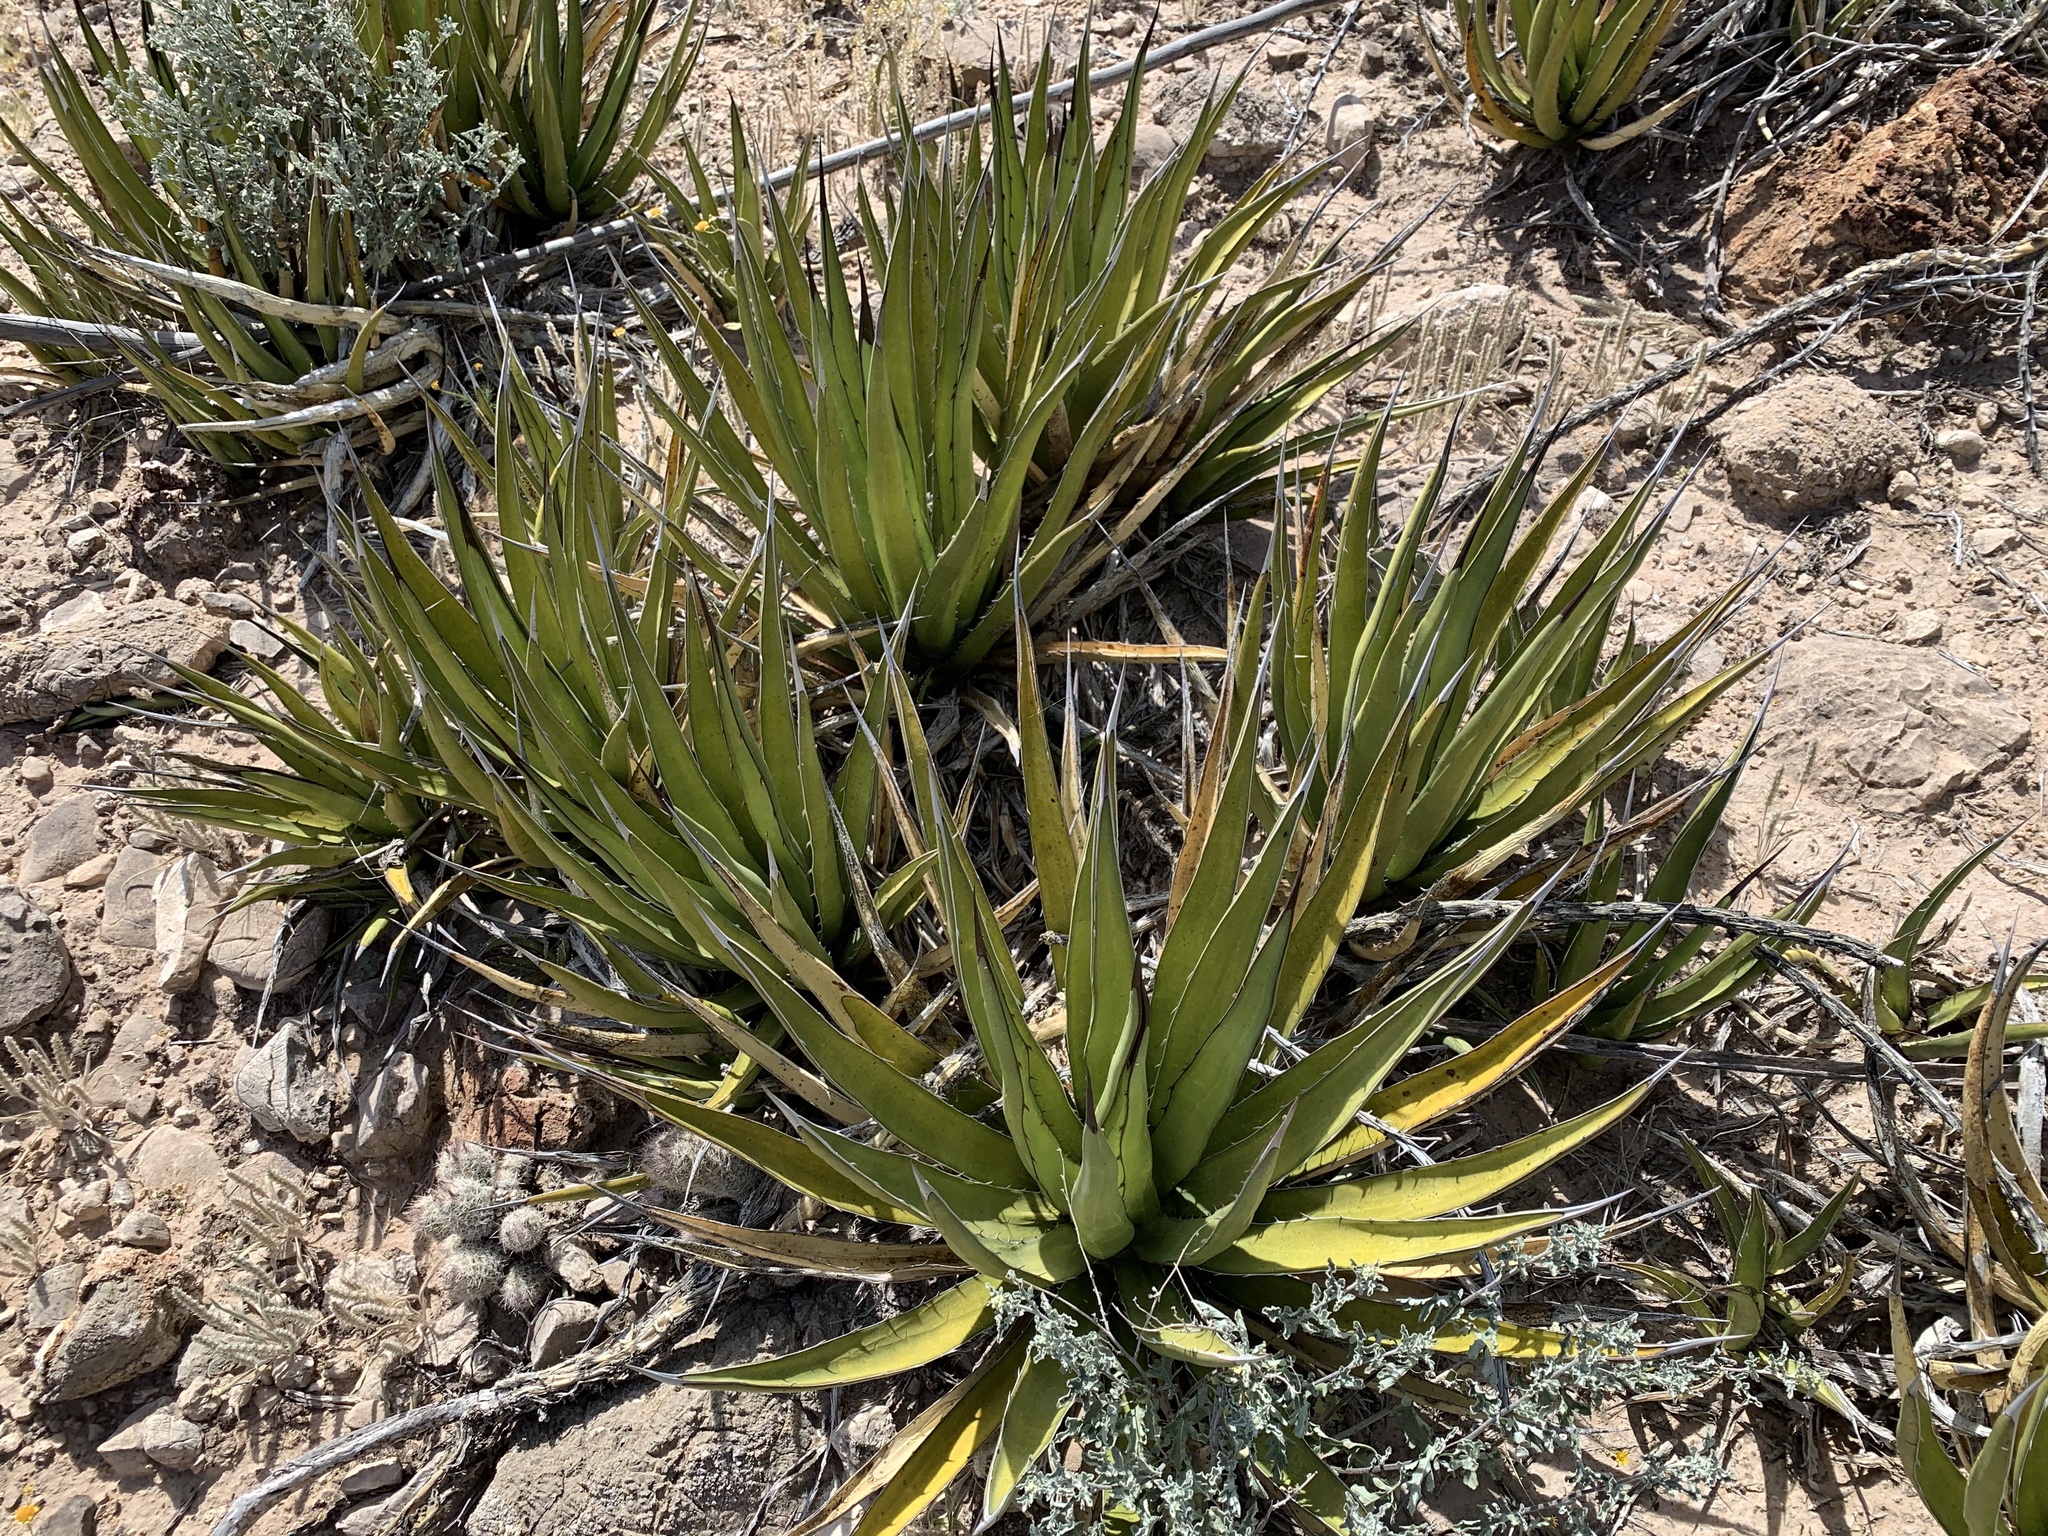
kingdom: Plantae
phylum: Tracheophyta
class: Liliopsida
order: Asparagales
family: Asparagaceae
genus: Agave
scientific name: Agave lechuguilla
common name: Lecheguilla agave
